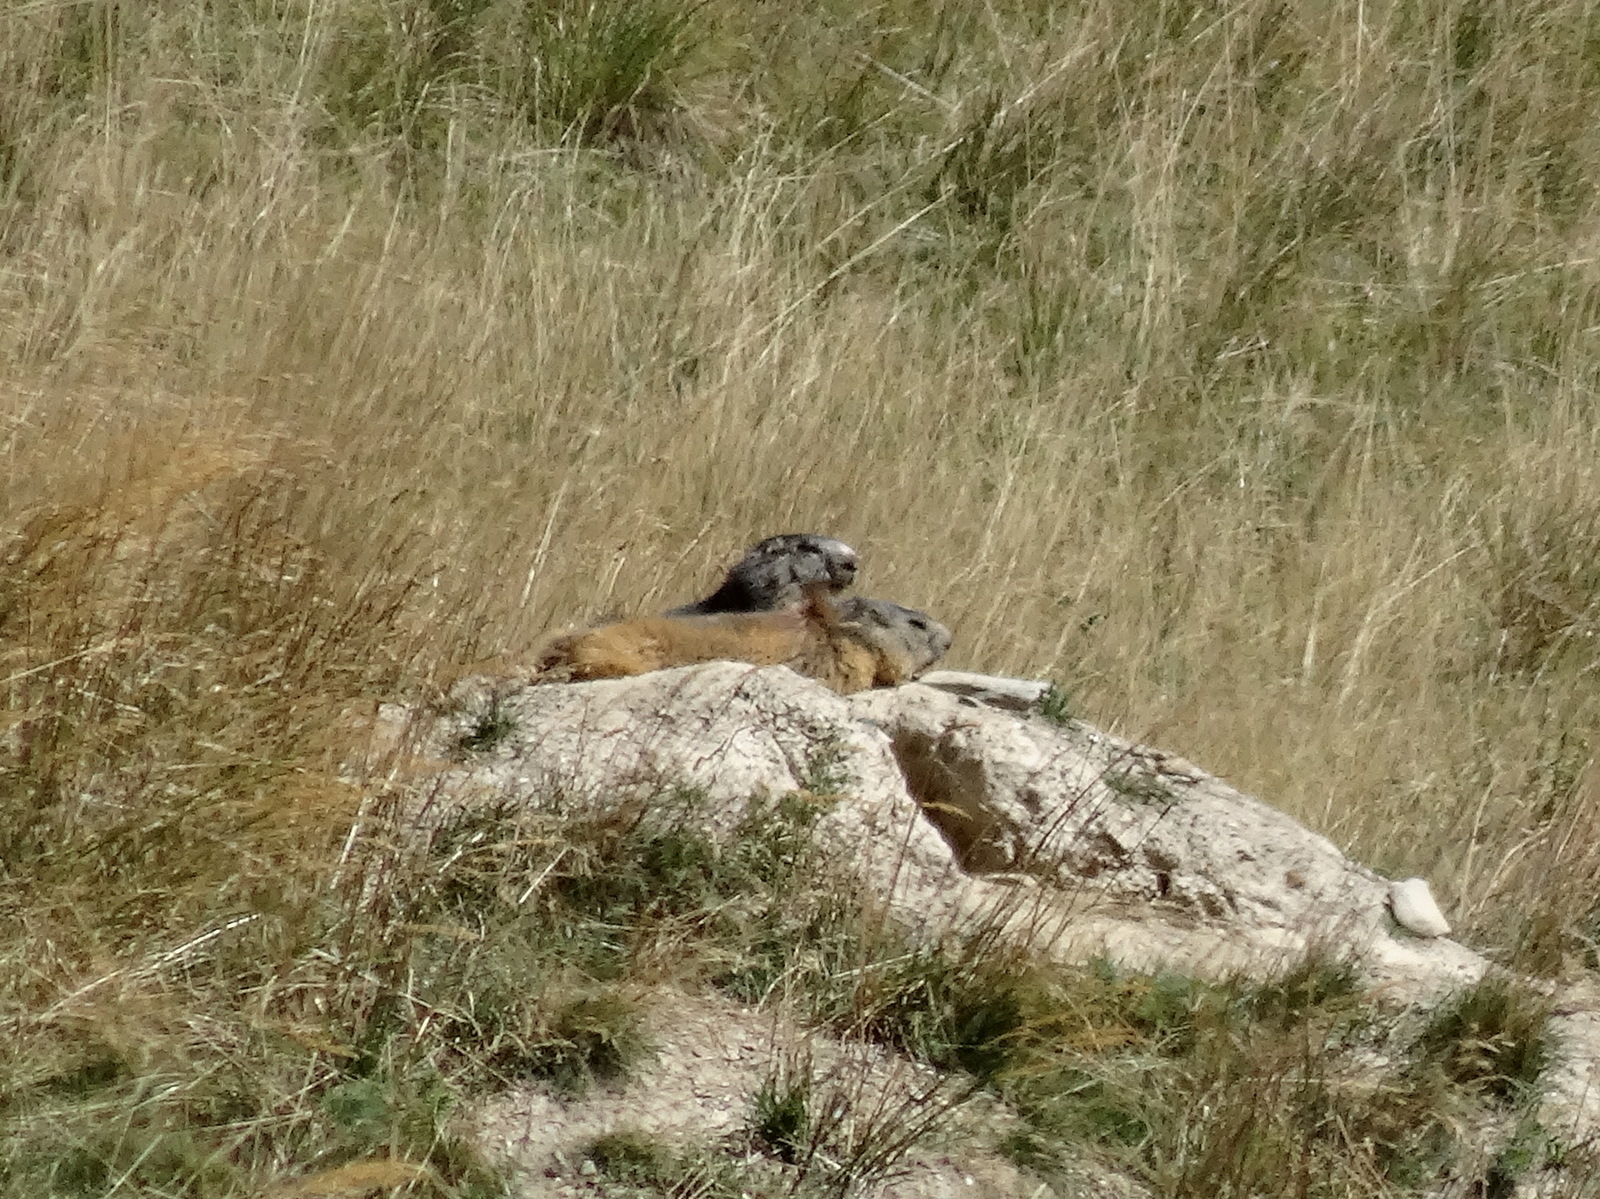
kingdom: Animalia
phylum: Chordata
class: Mammalia
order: Rodentia
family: Sciuridae
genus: Marmota
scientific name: Marmota marmota
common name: Alpine marmot
